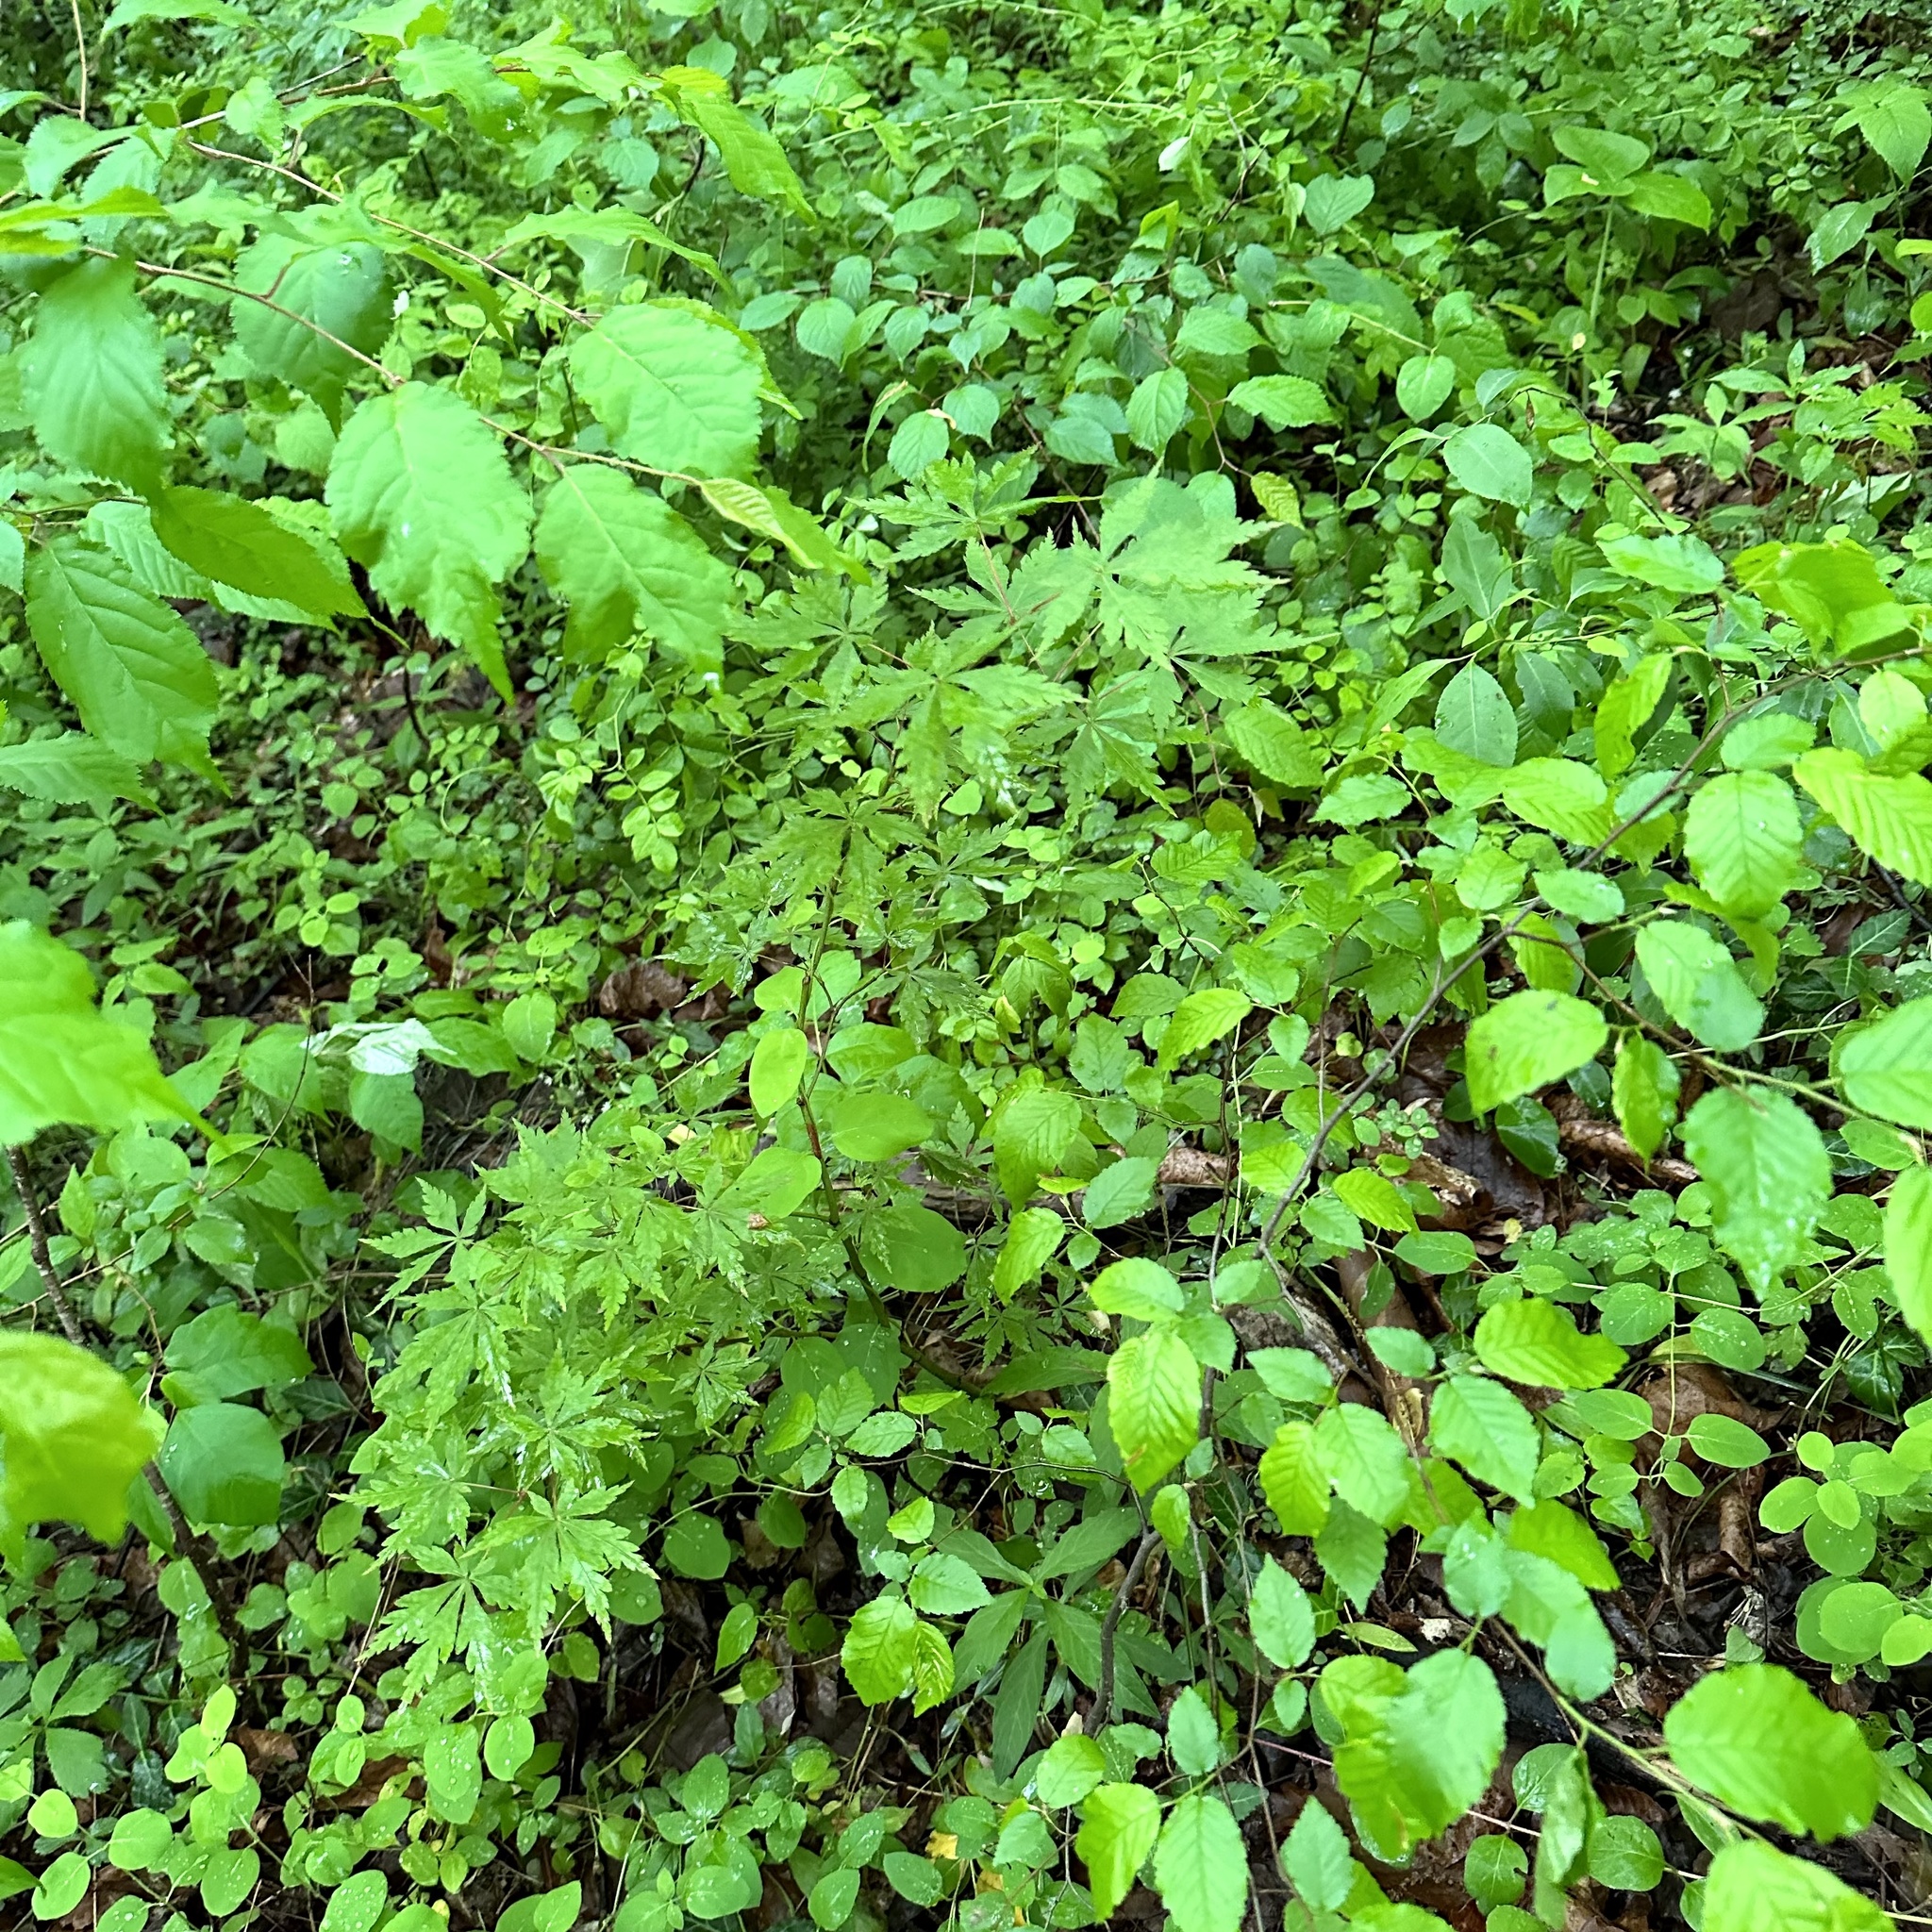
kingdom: Plantae
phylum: Tracheophyta
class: Magnoliopsida
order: Sapindales
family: Sapindaceae
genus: Acer
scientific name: Acer palmatum
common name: Japanese maple
